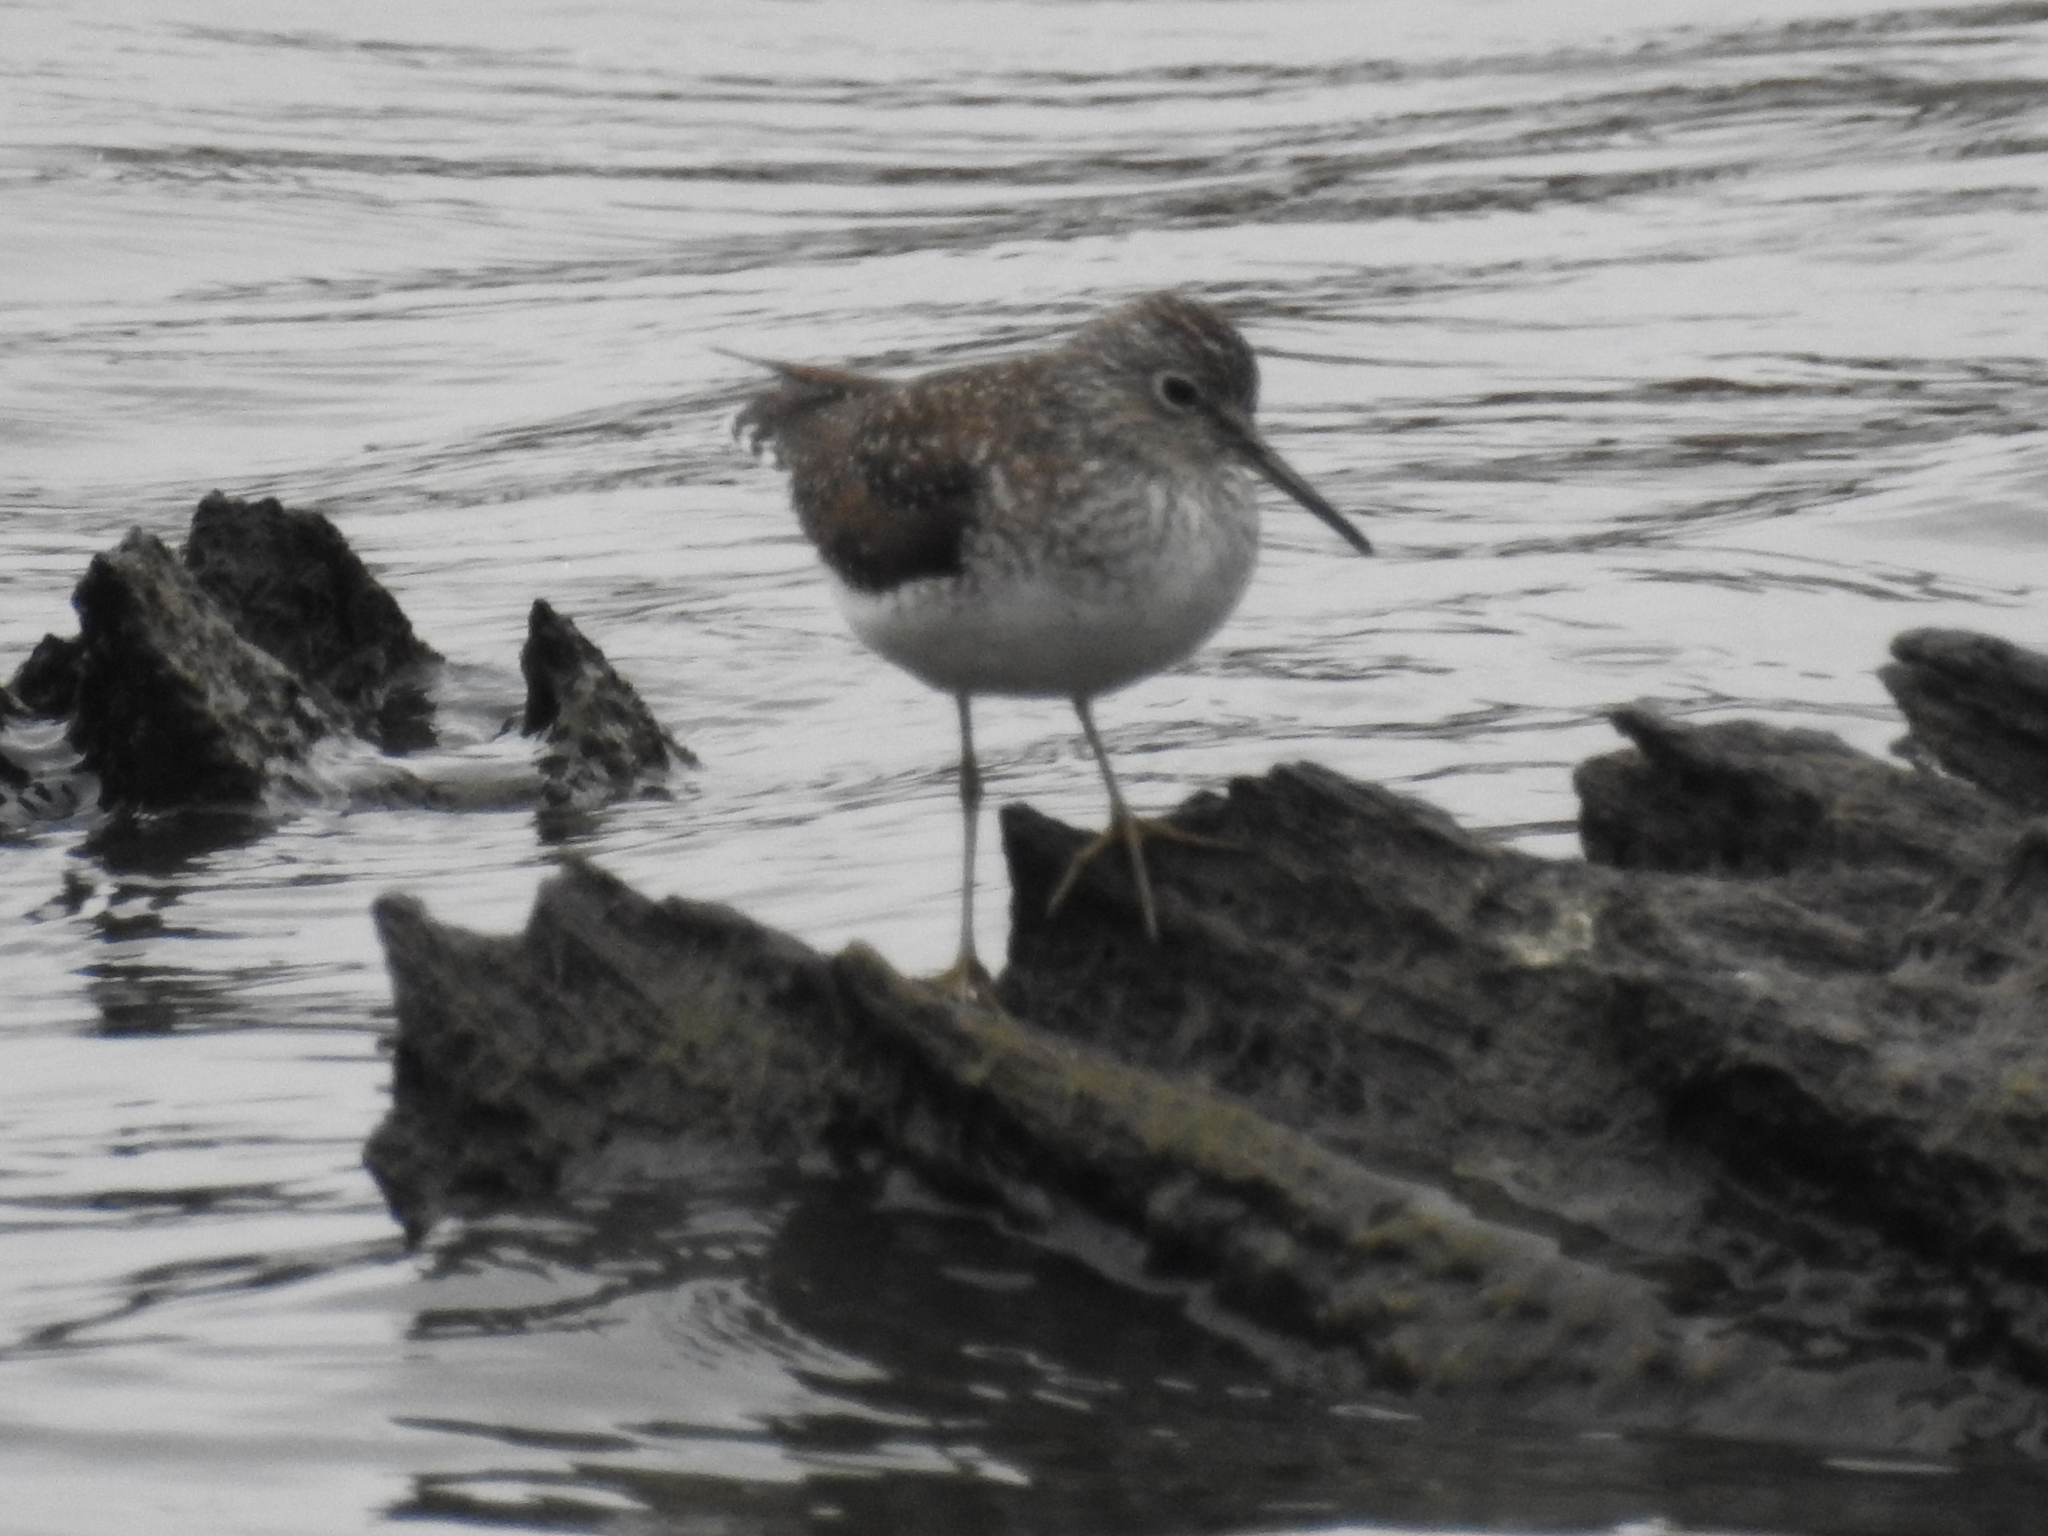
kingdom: Animalia
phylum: Chordata
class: Aves
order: Charadriiformes
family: Scolopacidae
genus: Tringa
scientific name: Tringa solitaria
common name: Solitary sandpiper
